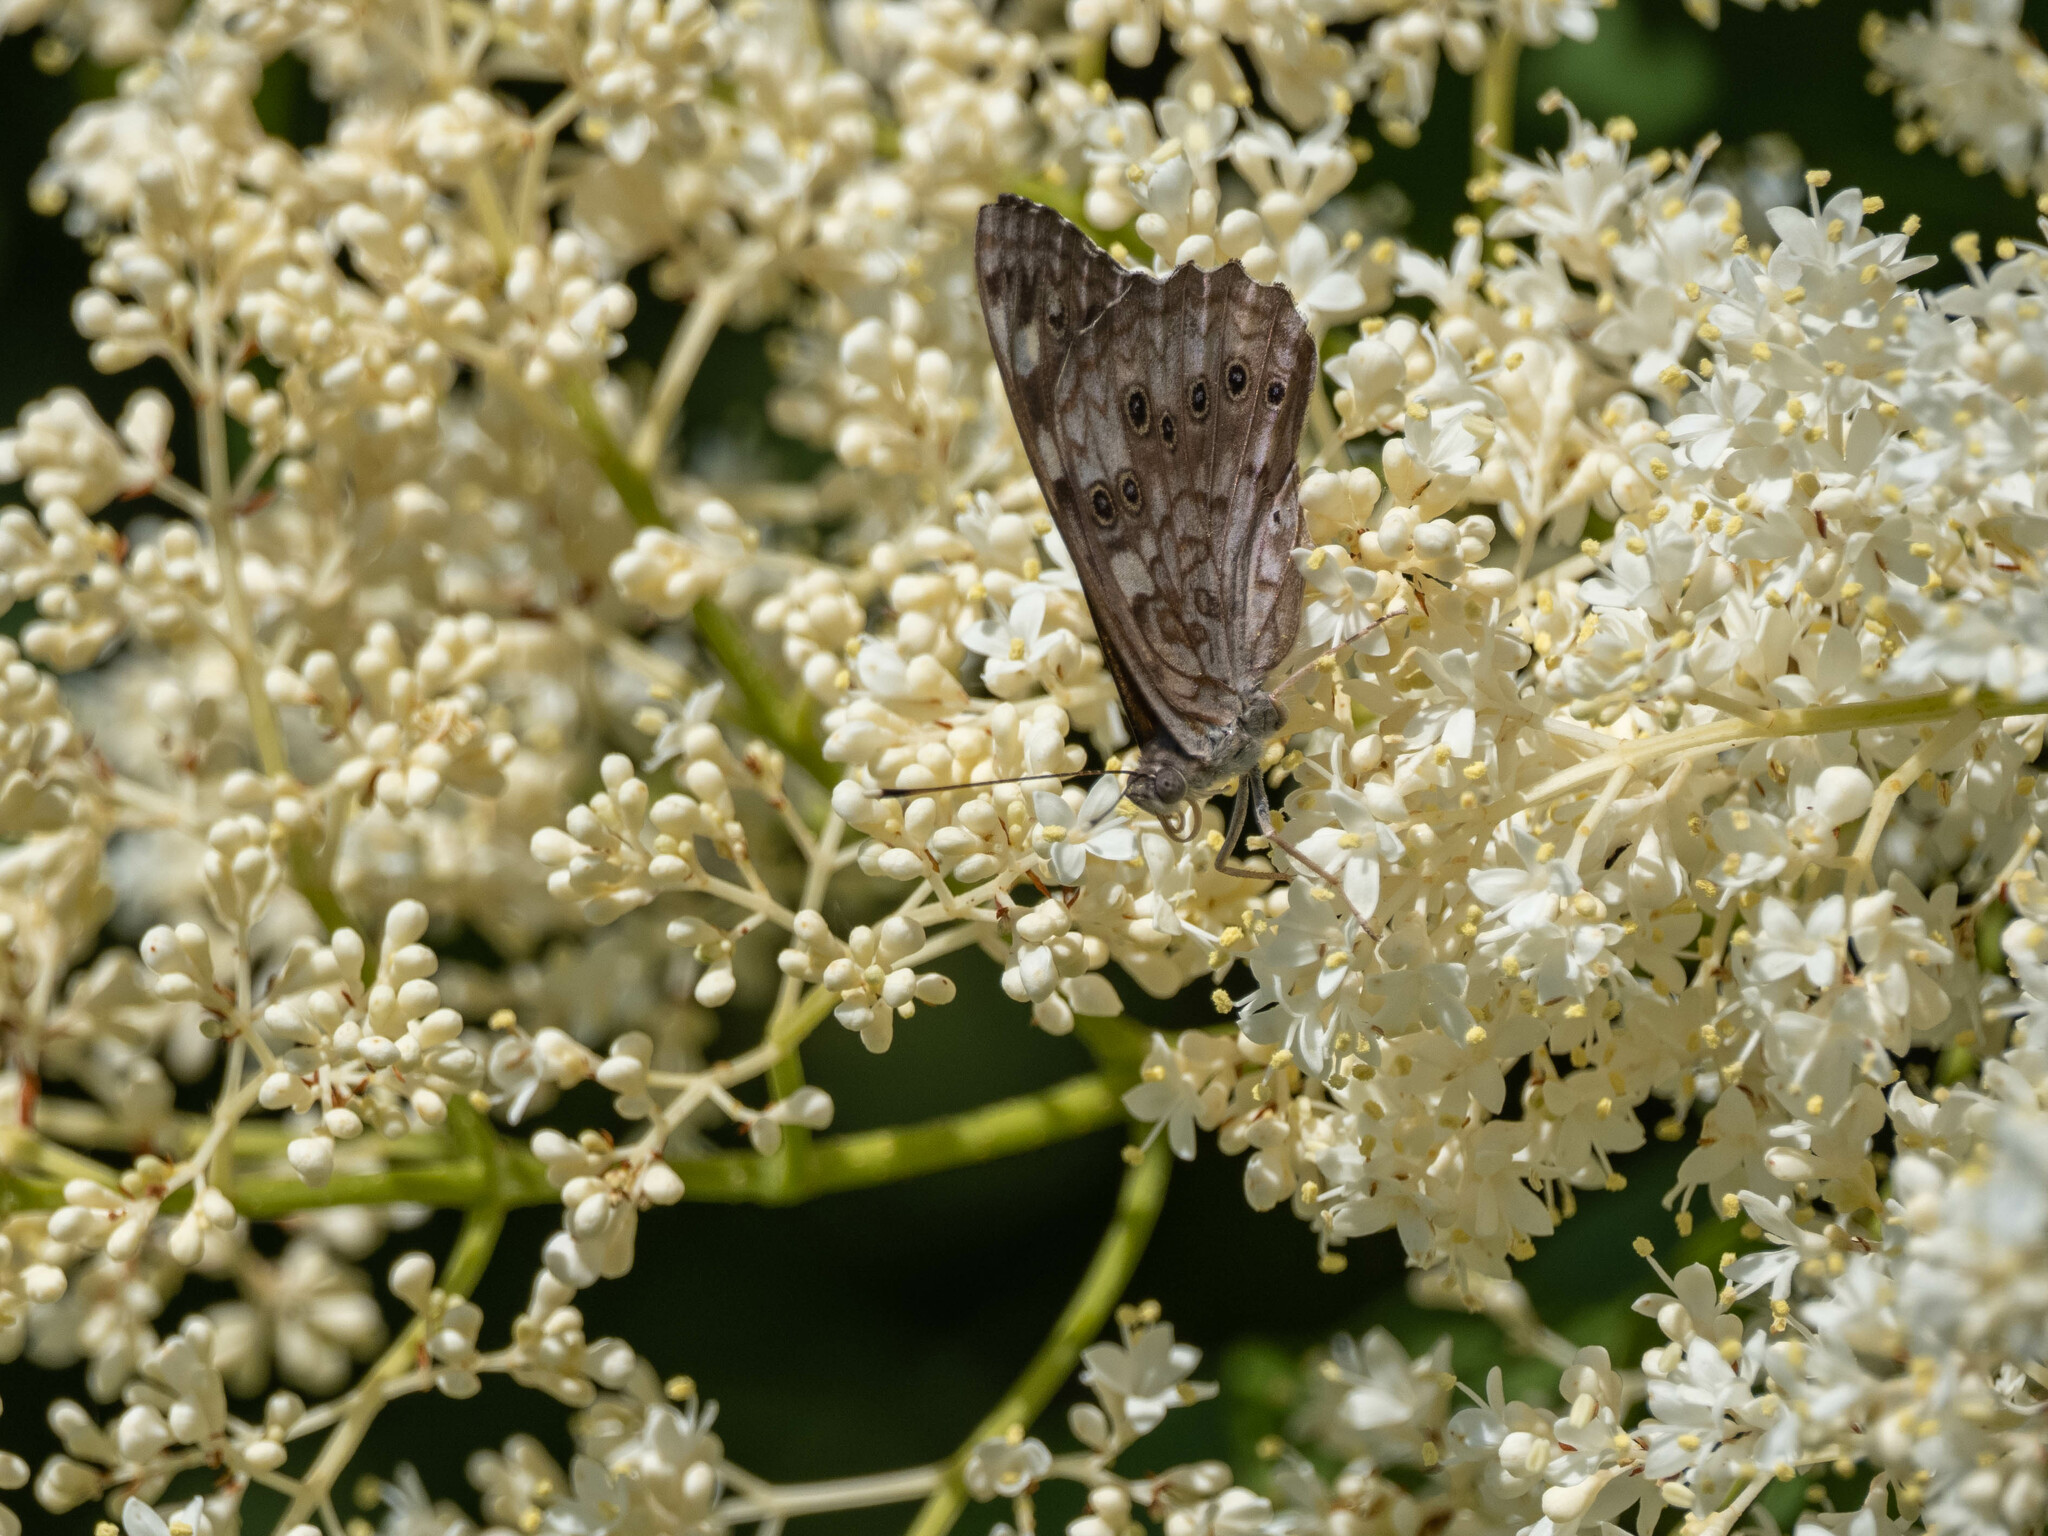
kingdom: Animalia
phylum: Arthropoda
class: Insecta
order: Lepidoptera
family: Nymphalidae
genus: Asterocampa
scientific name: Asterocampa celtis
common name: Hackberry emperor
